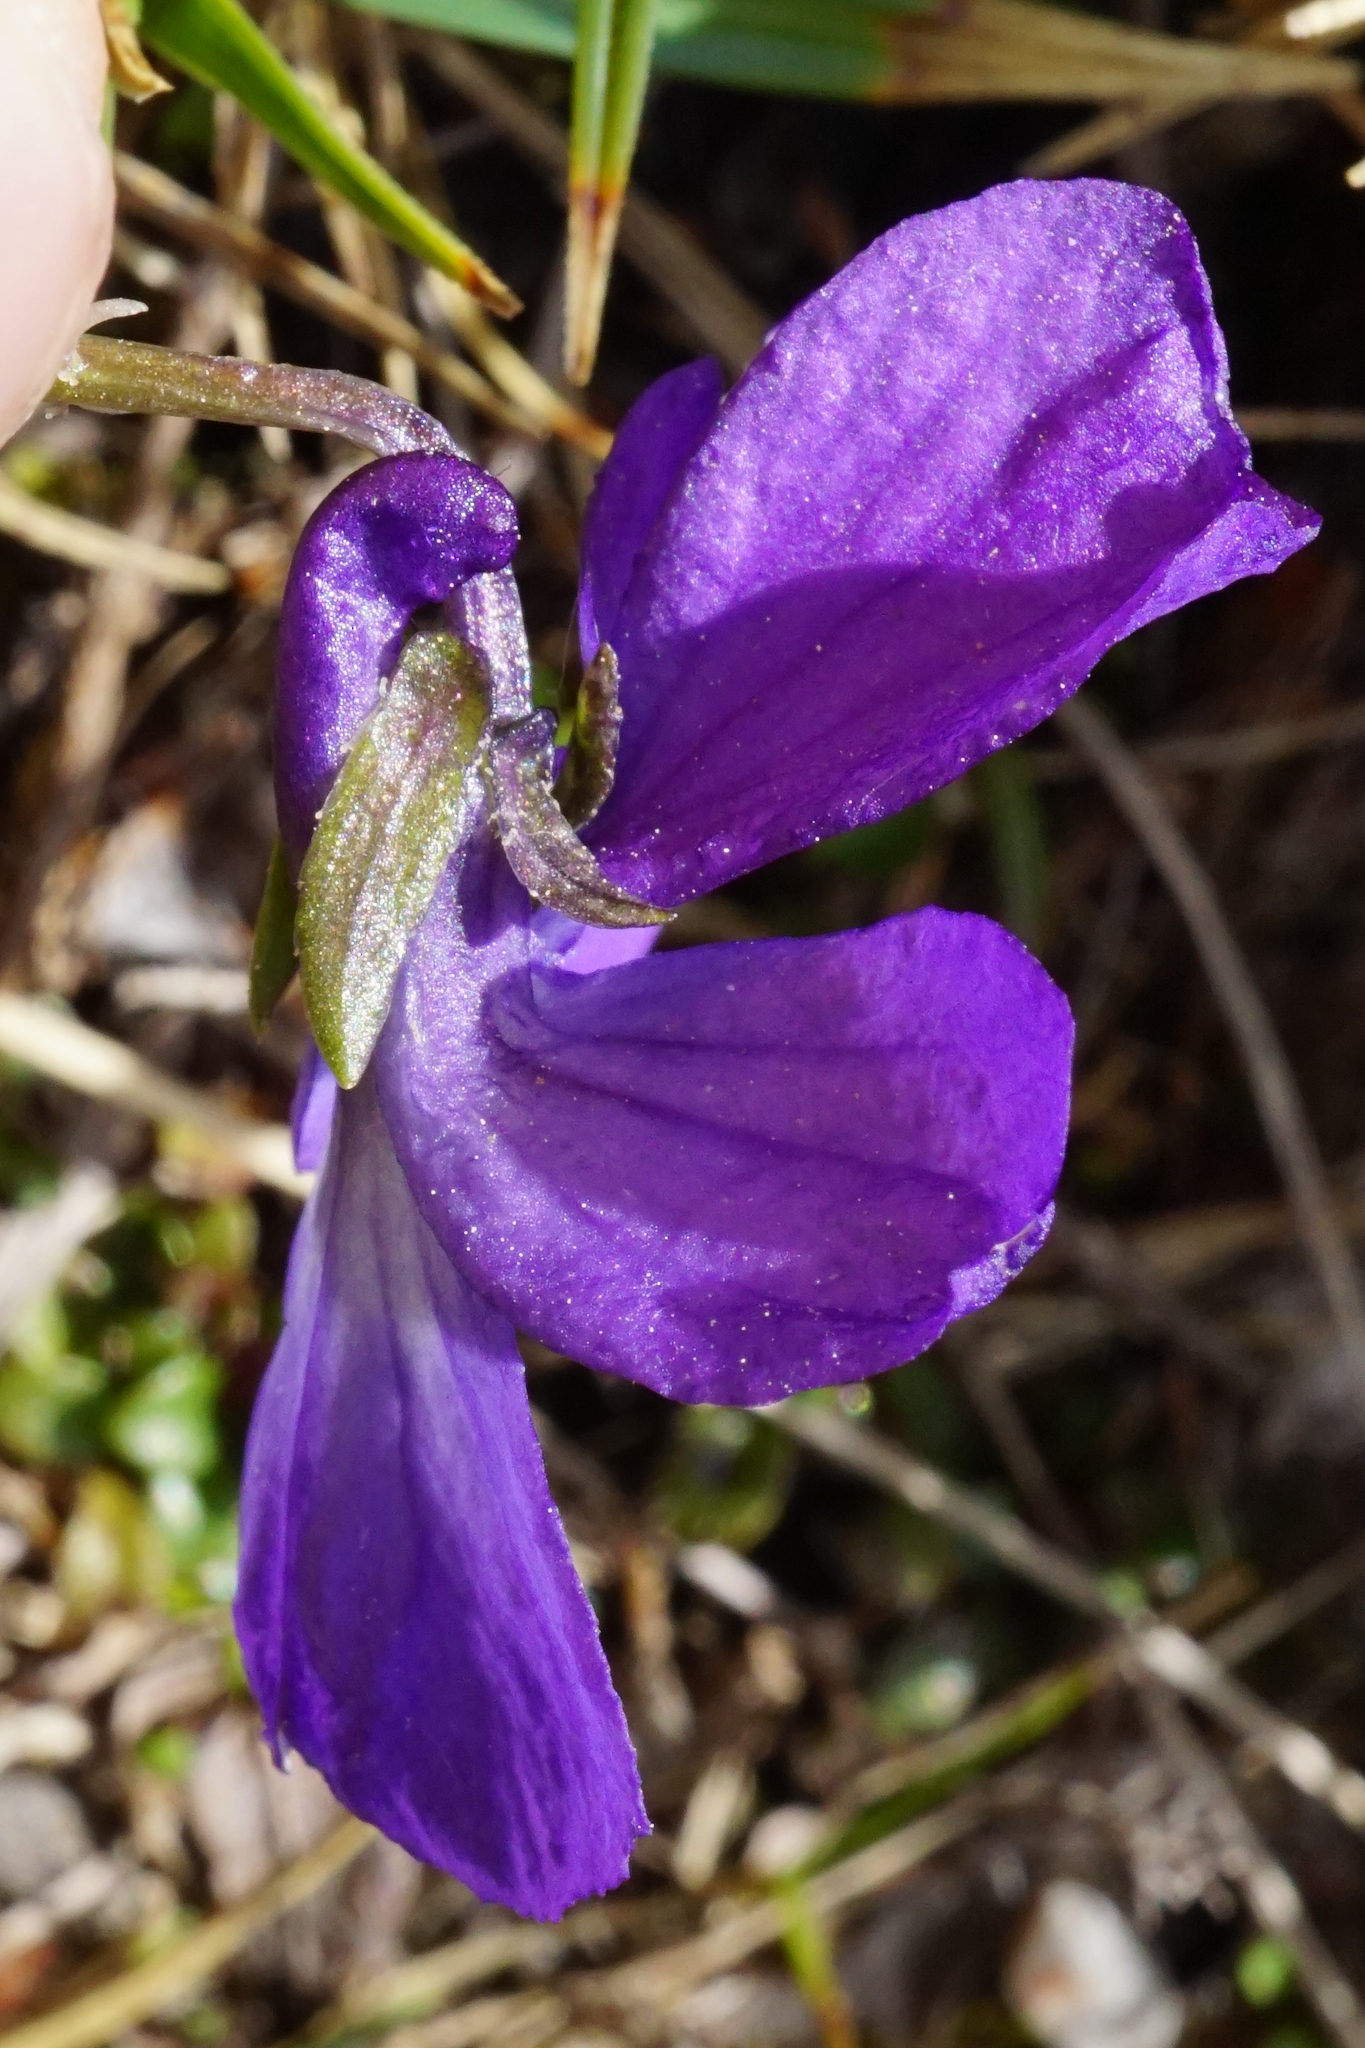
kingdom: Plantae
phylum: Tracheophyta
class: Magnoliopsida
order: Malpighiales
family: Violaceae
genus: Viola
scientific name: Viola alpina
